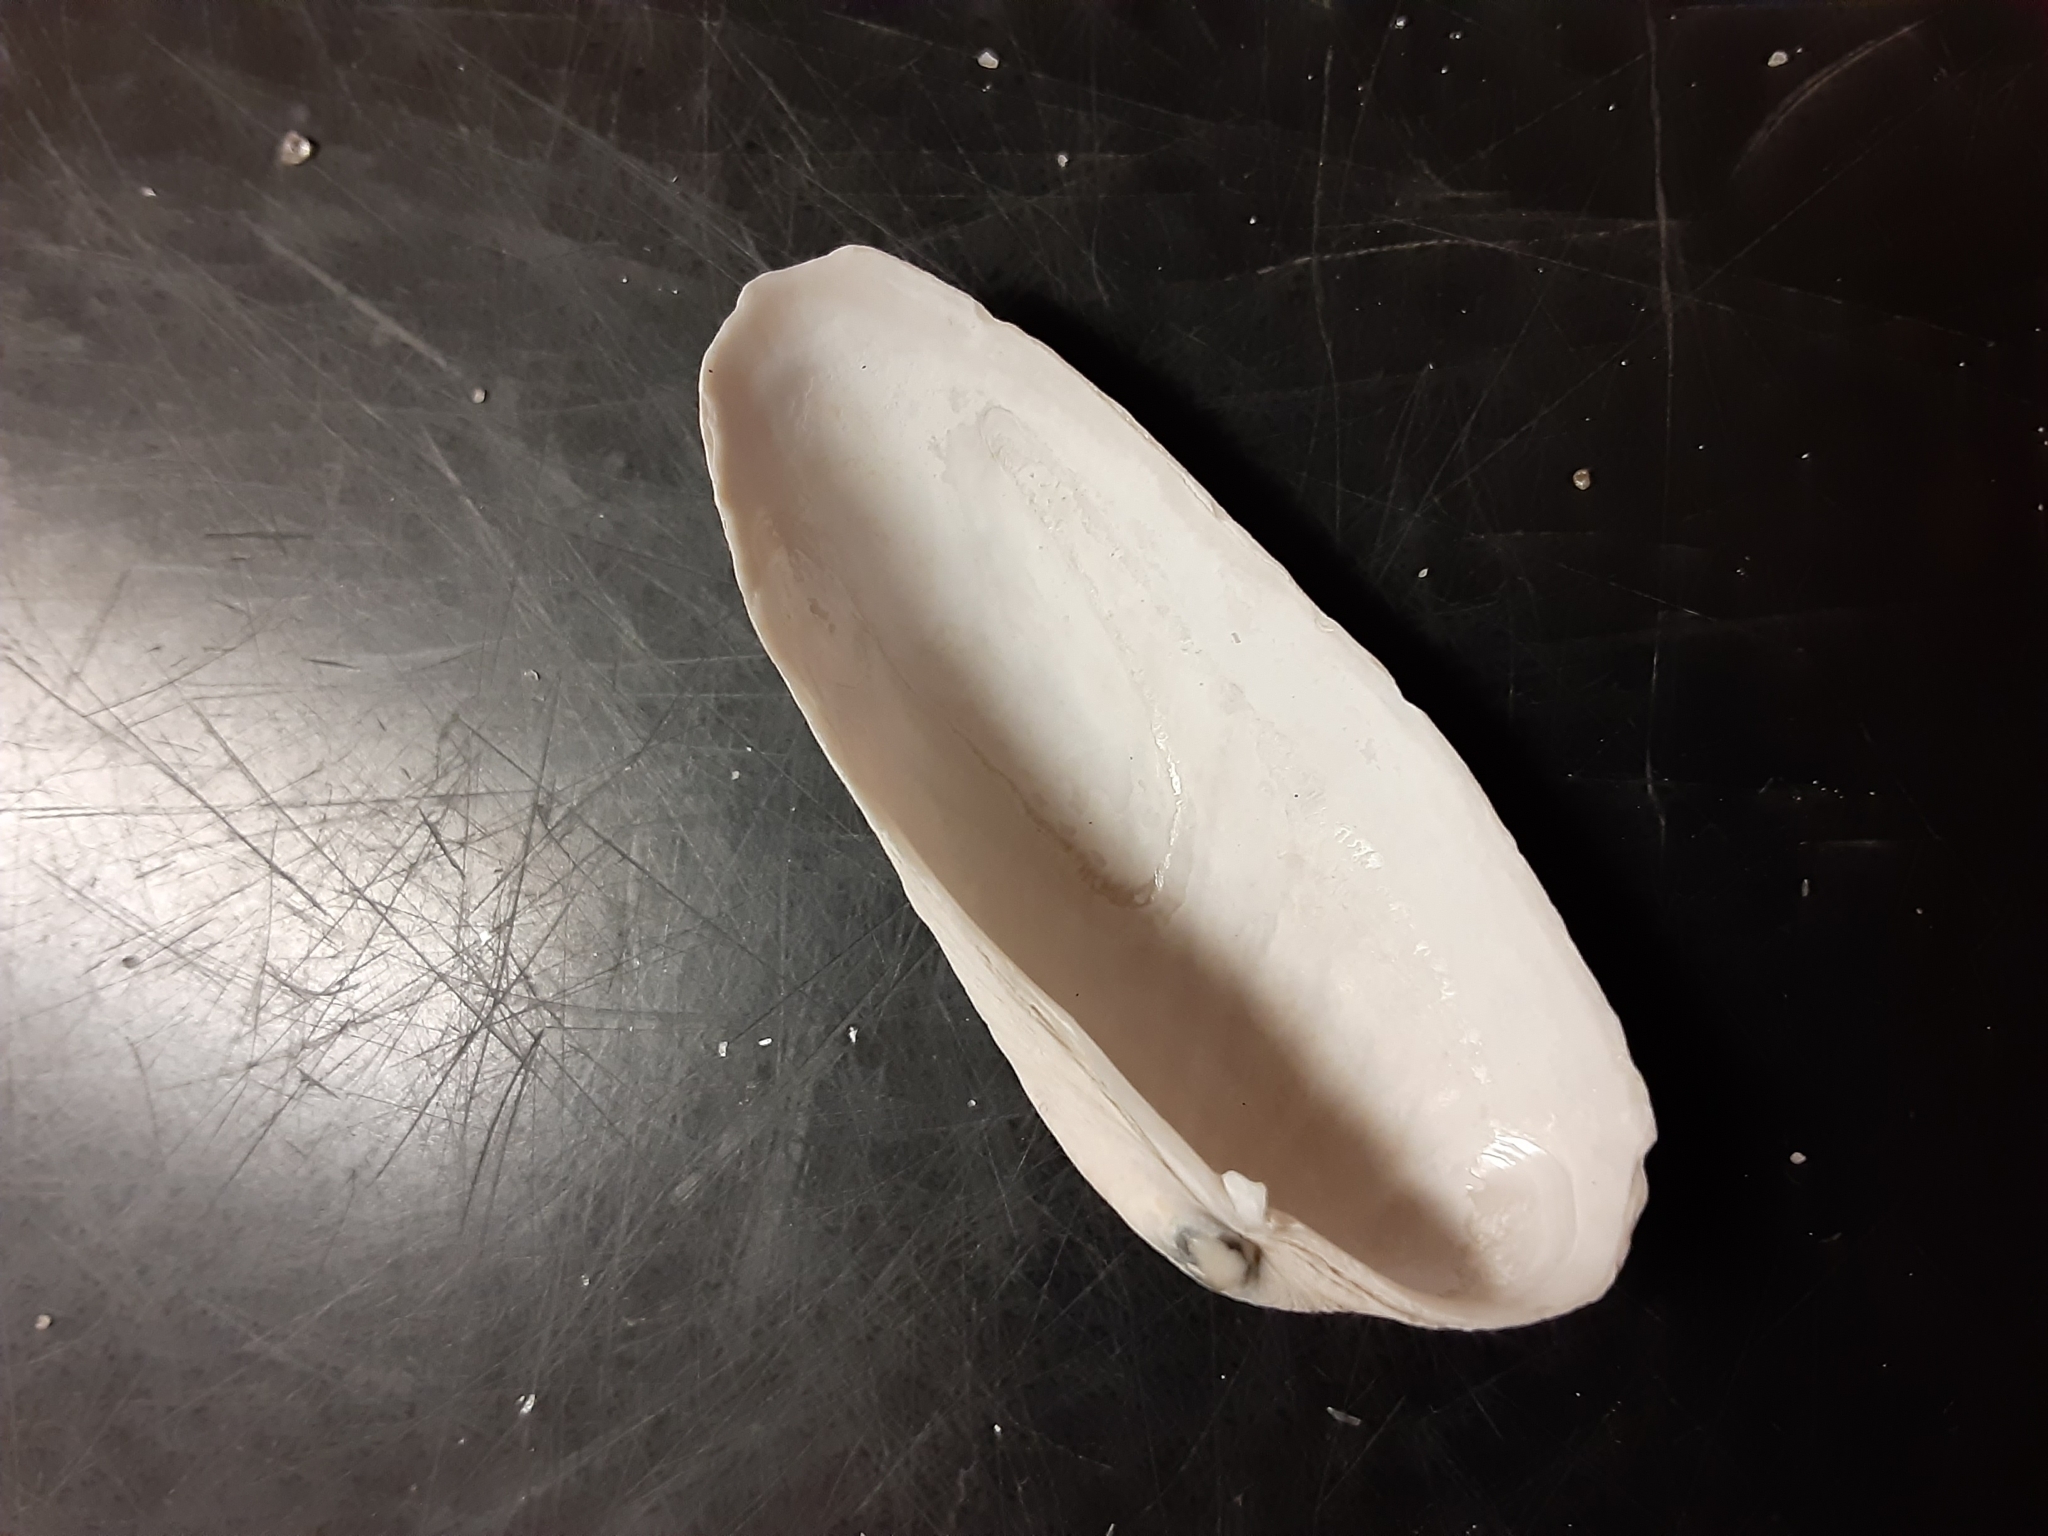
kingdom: Animalia
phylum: Mollusca
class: Bivalvia
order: Venerida
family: Veneridae
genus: Petricolaria
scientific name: Petricolaria pholadiformis
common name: American piddock
